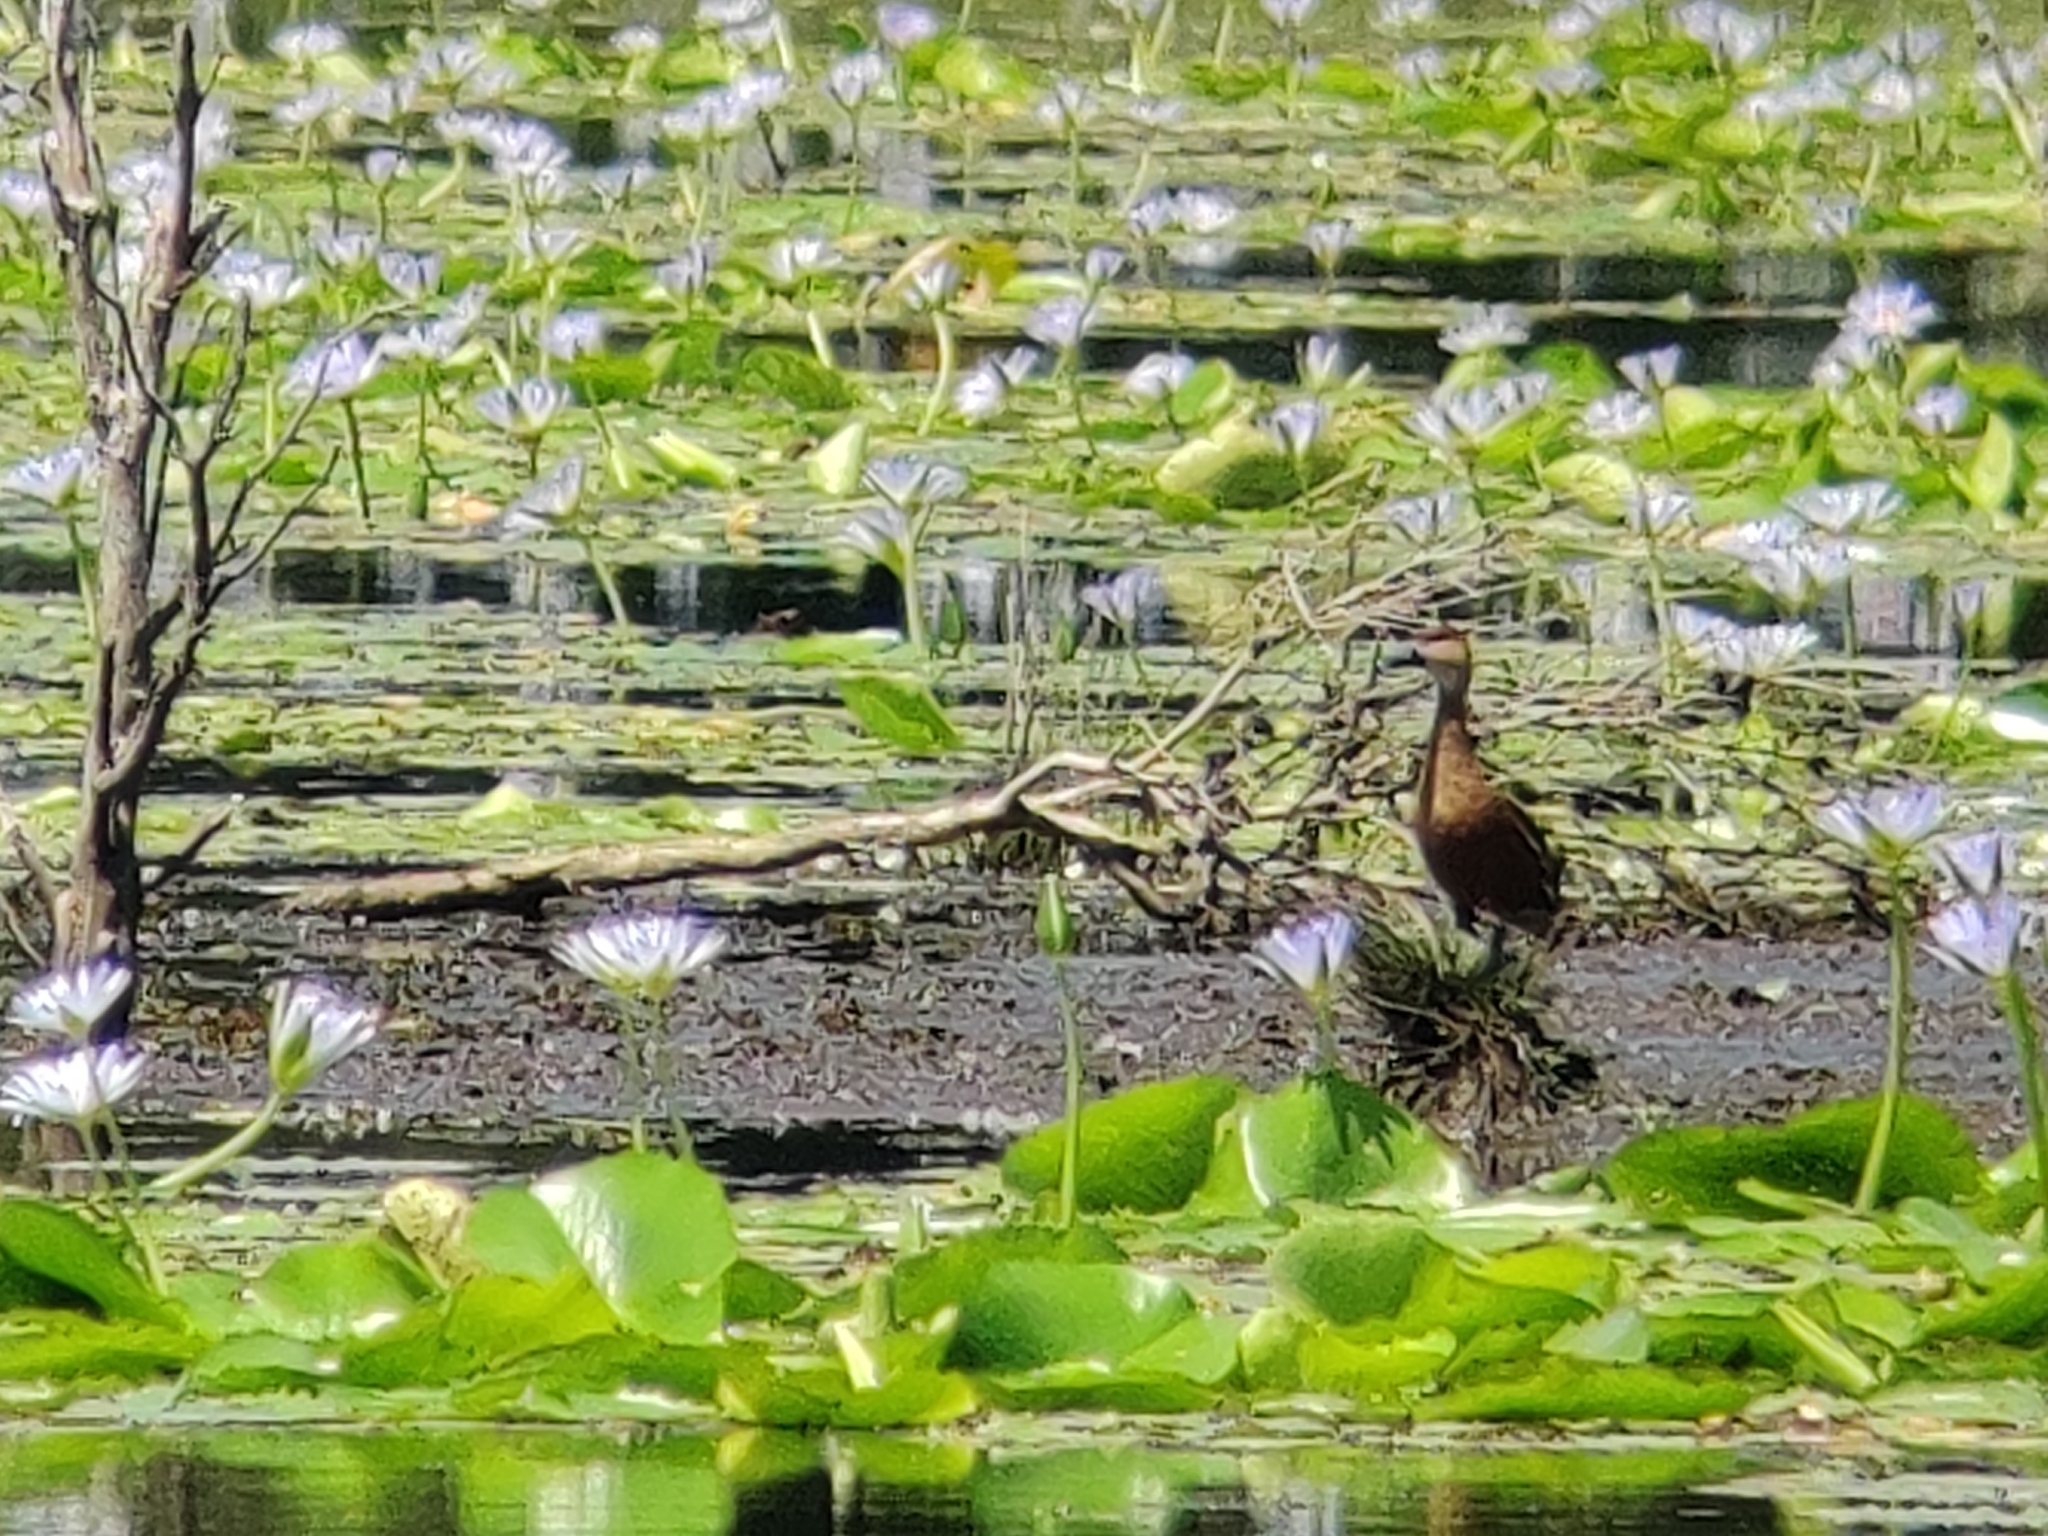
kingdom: Animalia
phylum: Chordata
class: Aves
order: Anseriformes
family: Anatidae
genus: Dendrocygna
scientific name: Dendrocygna arcuata
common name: Wandering whistling-duck
